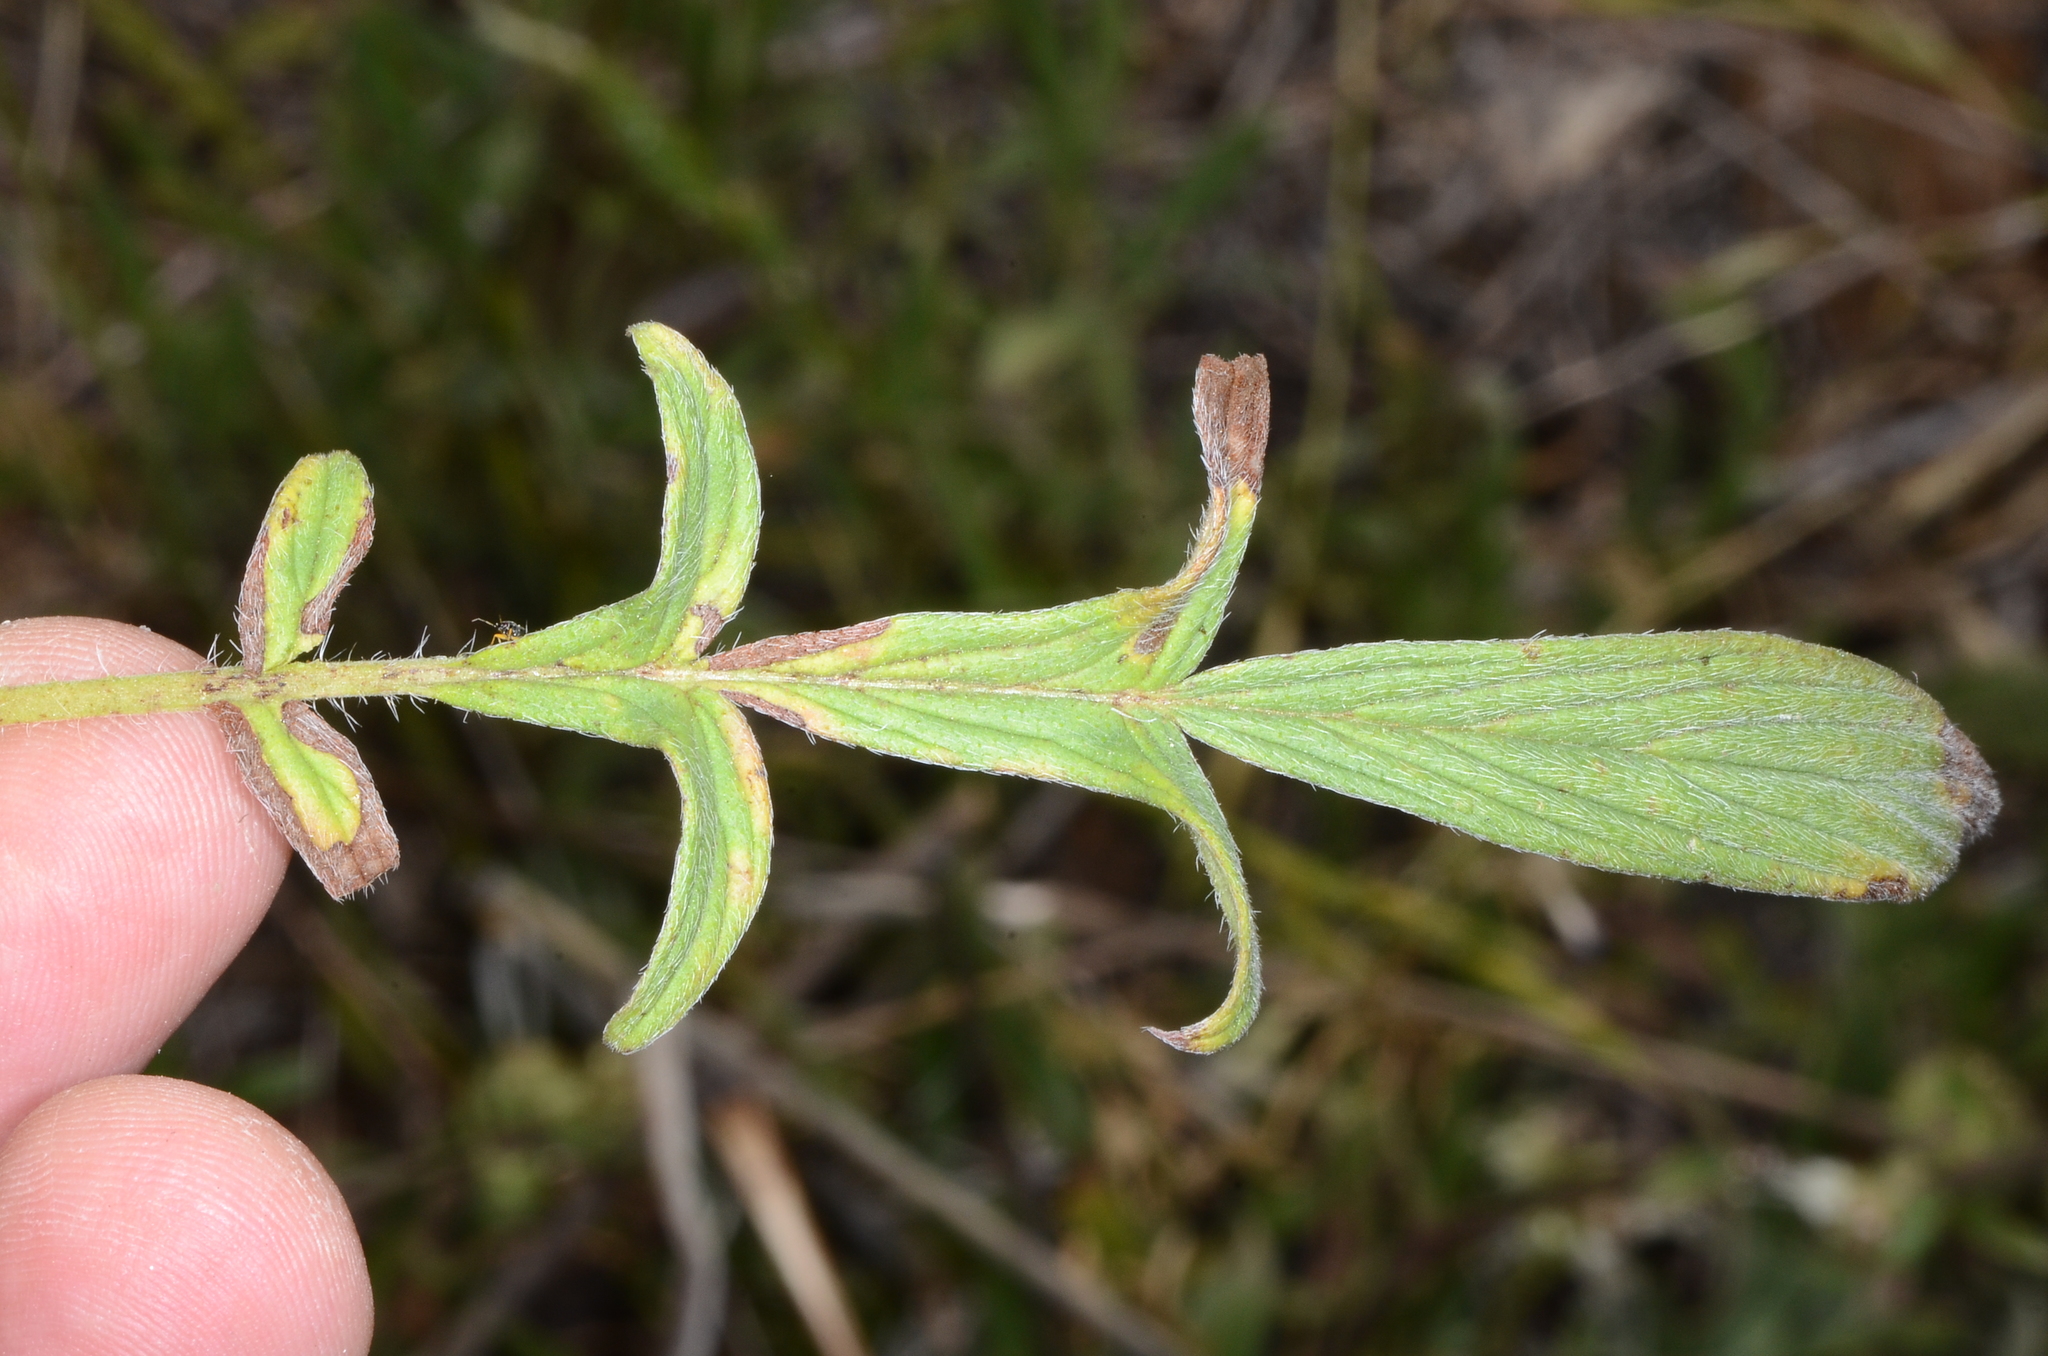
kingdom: Plantae
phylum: Tracheophyta
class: Magnoliopsida
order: Boraginales
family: Hydrophyllaceae
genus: Phacelia
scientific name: Phacelia imbricata
